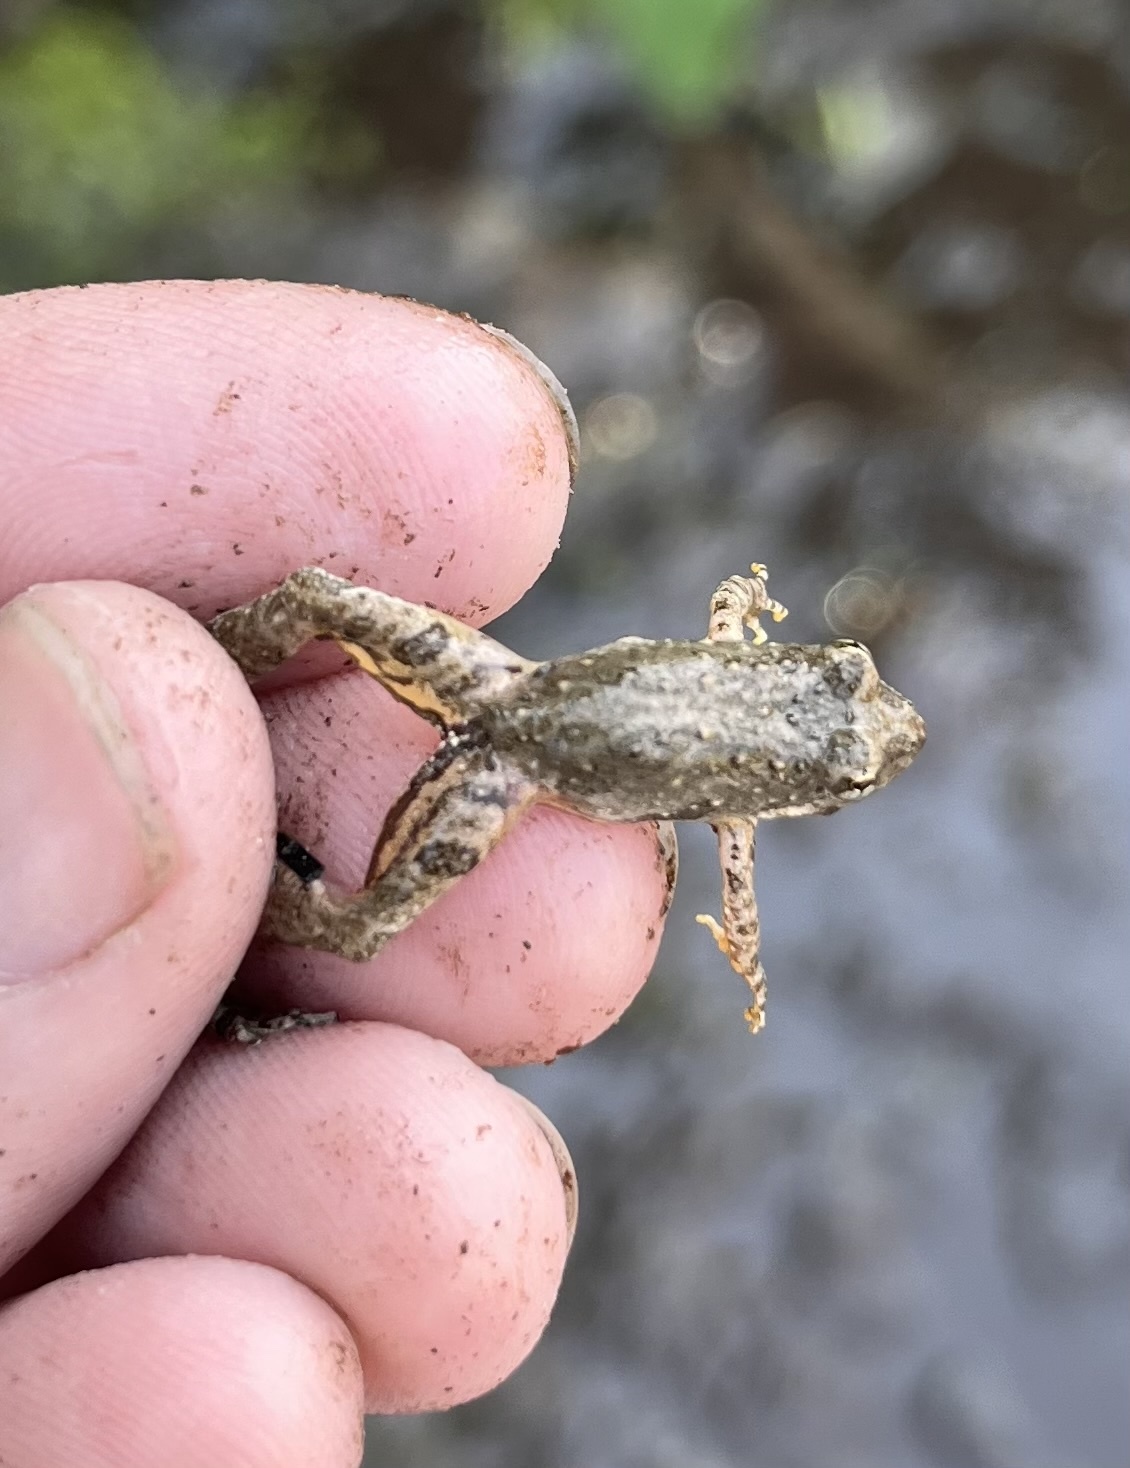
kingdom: Animalia
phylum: Chordata
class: Amphibia
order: Anura
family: Hylidae
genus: Acris
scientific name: Acris blanchardi
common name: Blanchard's cricket frog
